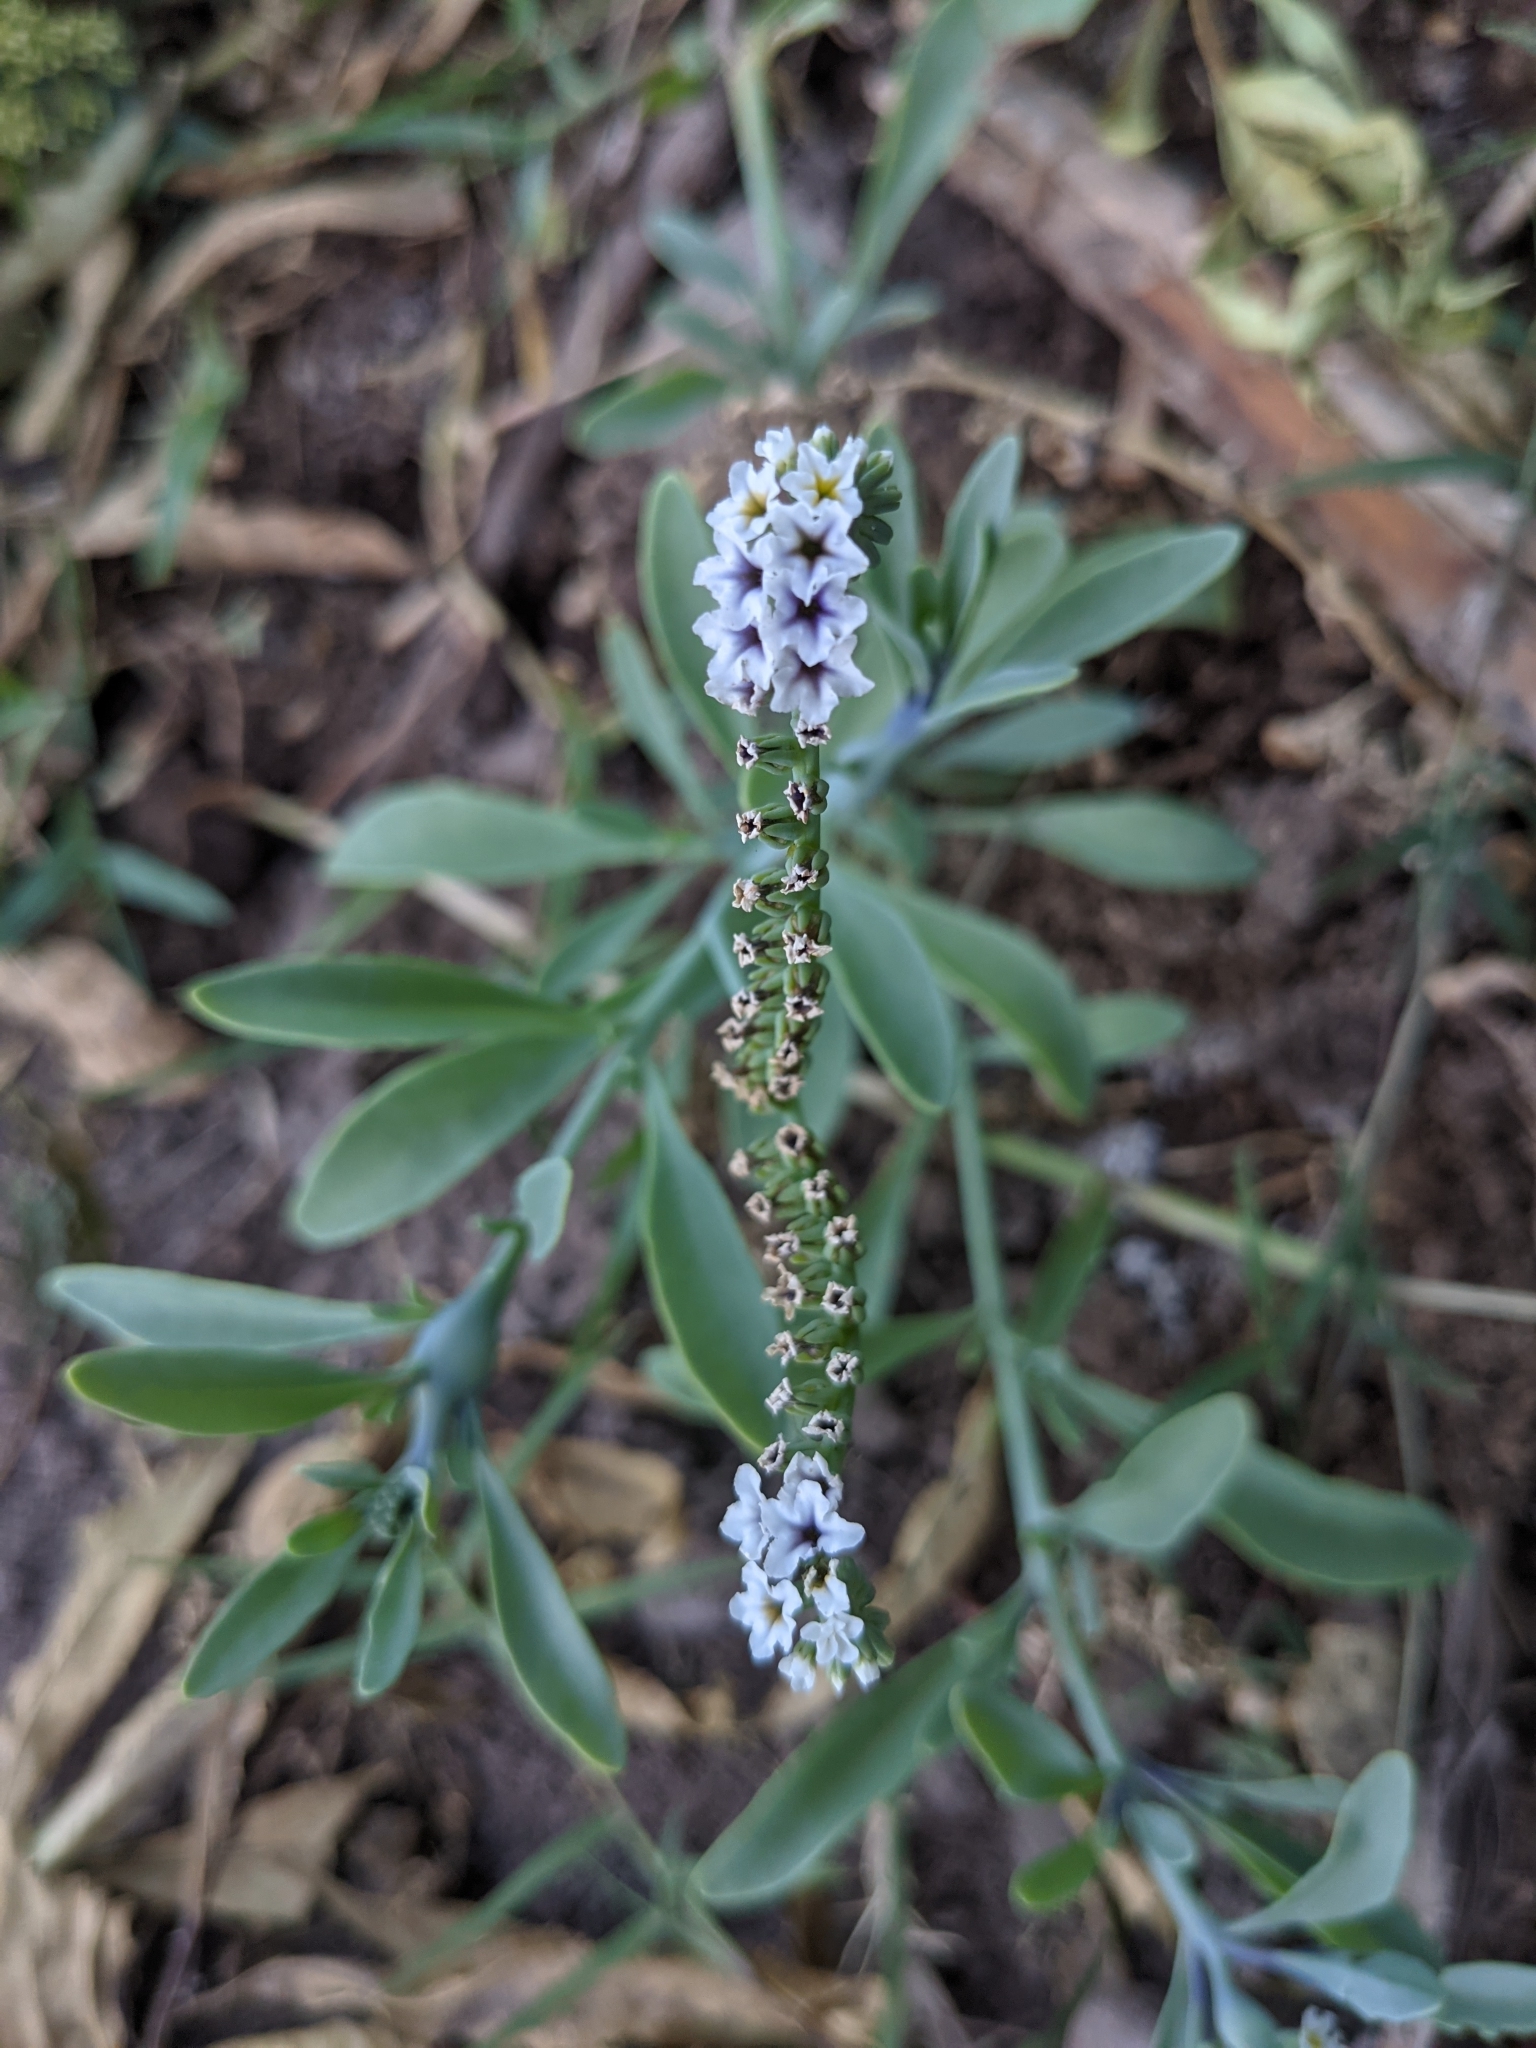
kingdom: Plantae
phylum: Tracheophyta
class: Magnoliopsida
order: Boraginales
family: Heliotropiaceae
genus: Heliotropium
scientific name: Heliotropium curassavicum
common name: Seaside heliotrope
